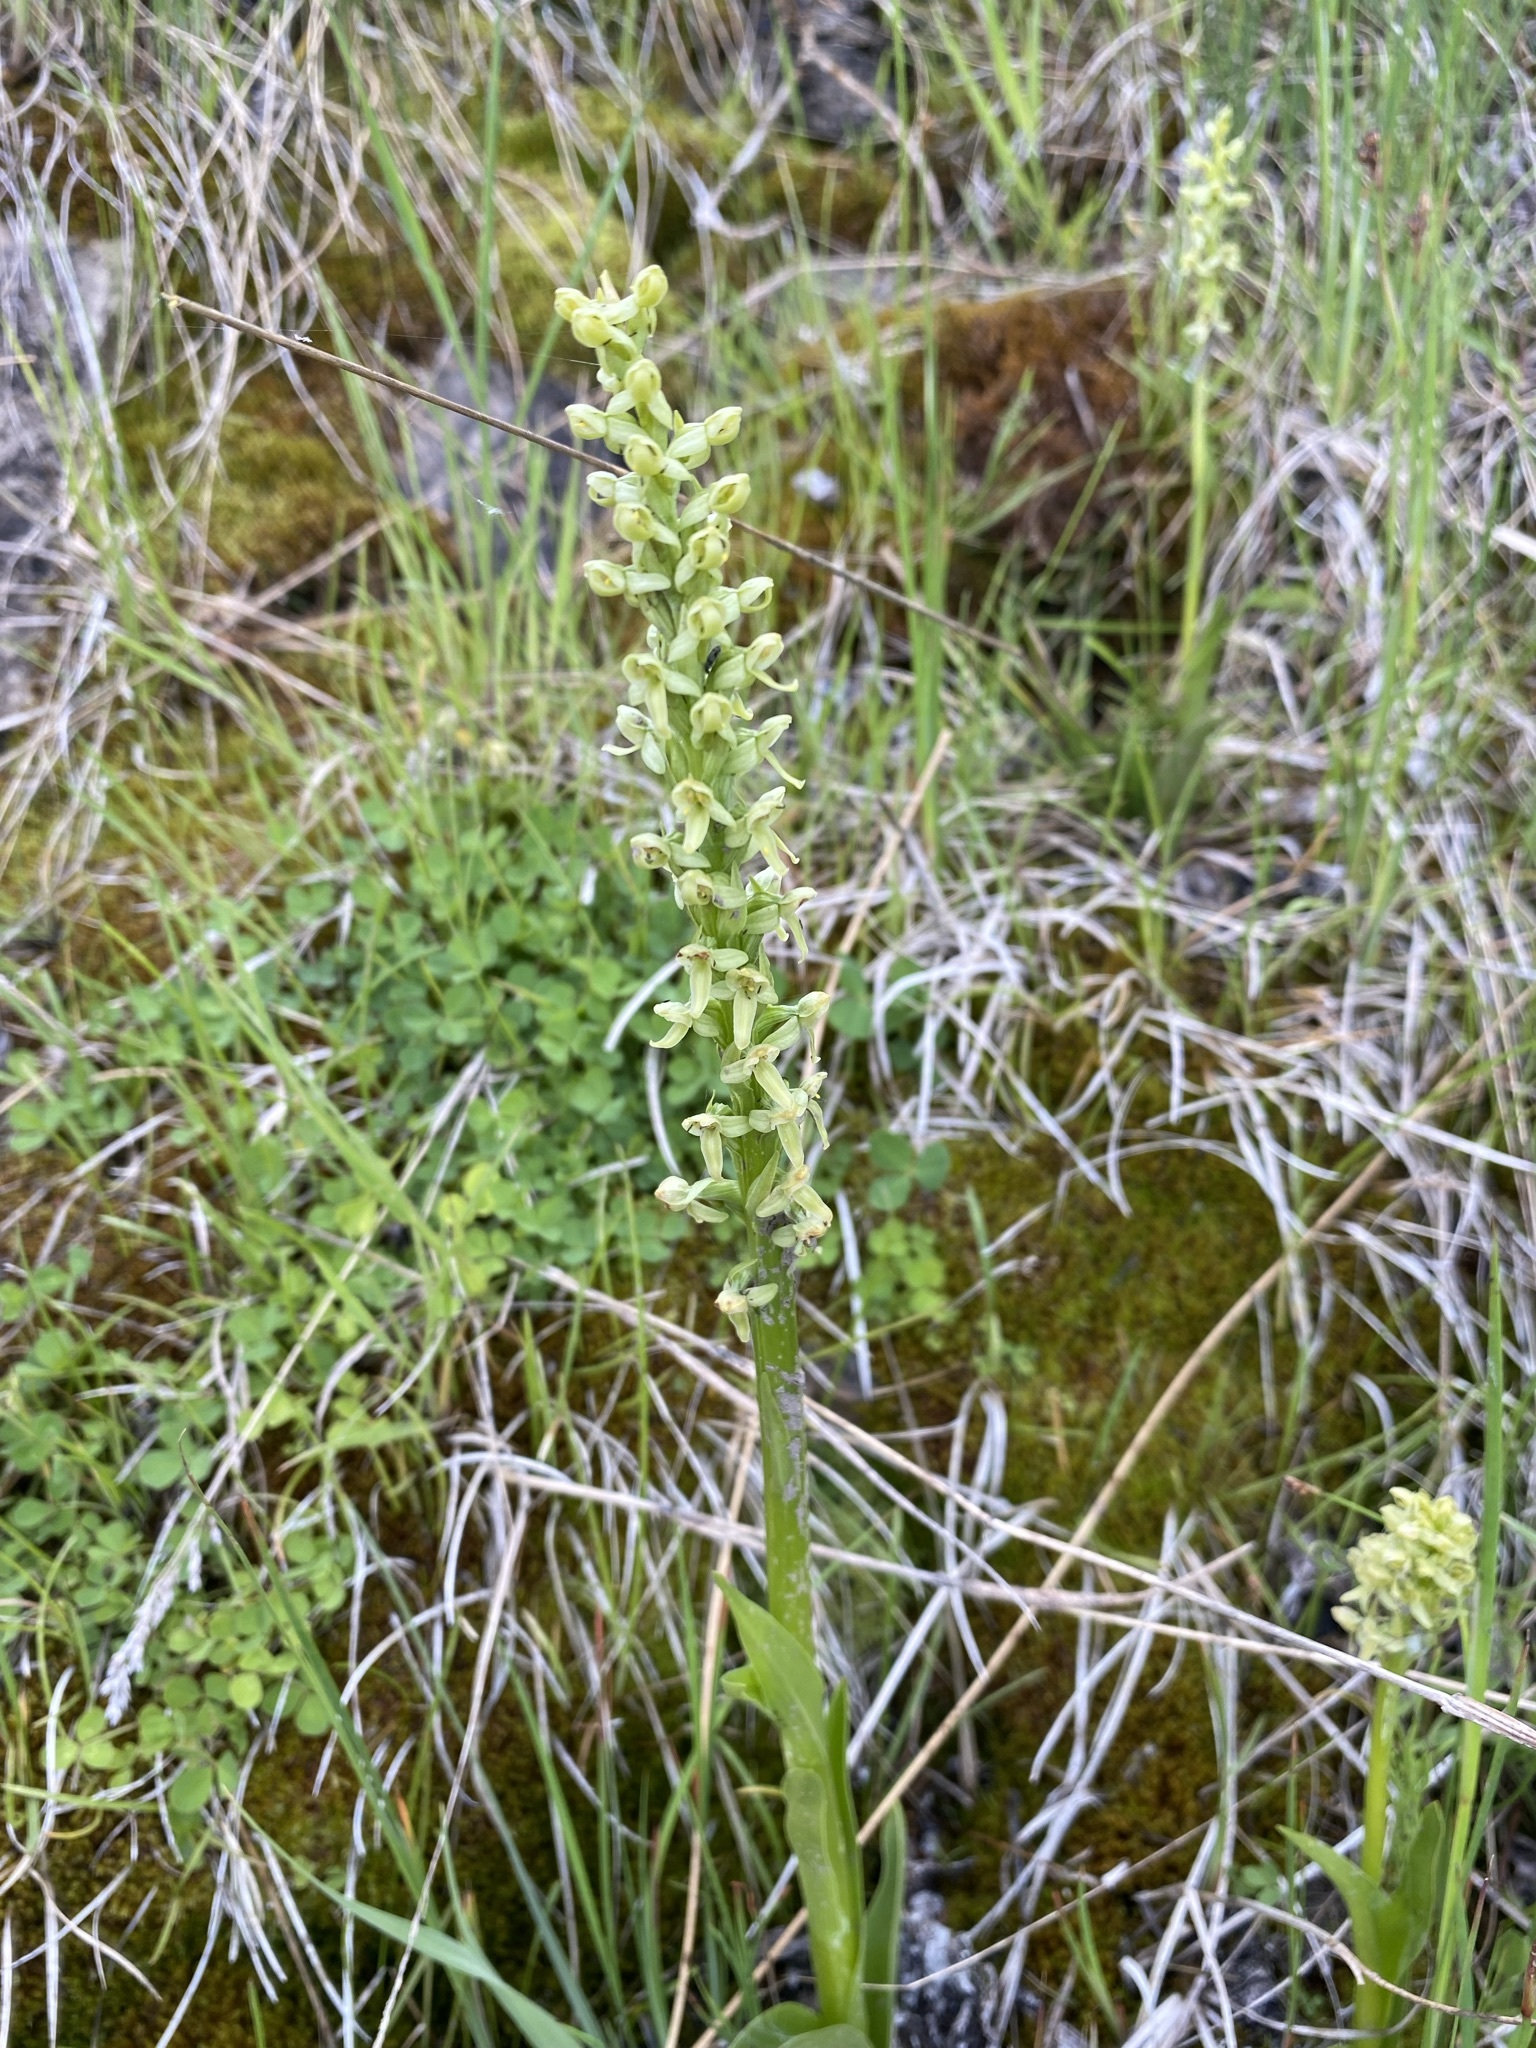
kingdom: Plantae
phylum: Tracheophyta
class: Liliopsida
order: Asparagales
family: Orchidaceae
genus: Platanthera
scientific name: Platanthera huronensis
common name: Fragrant green orchid
